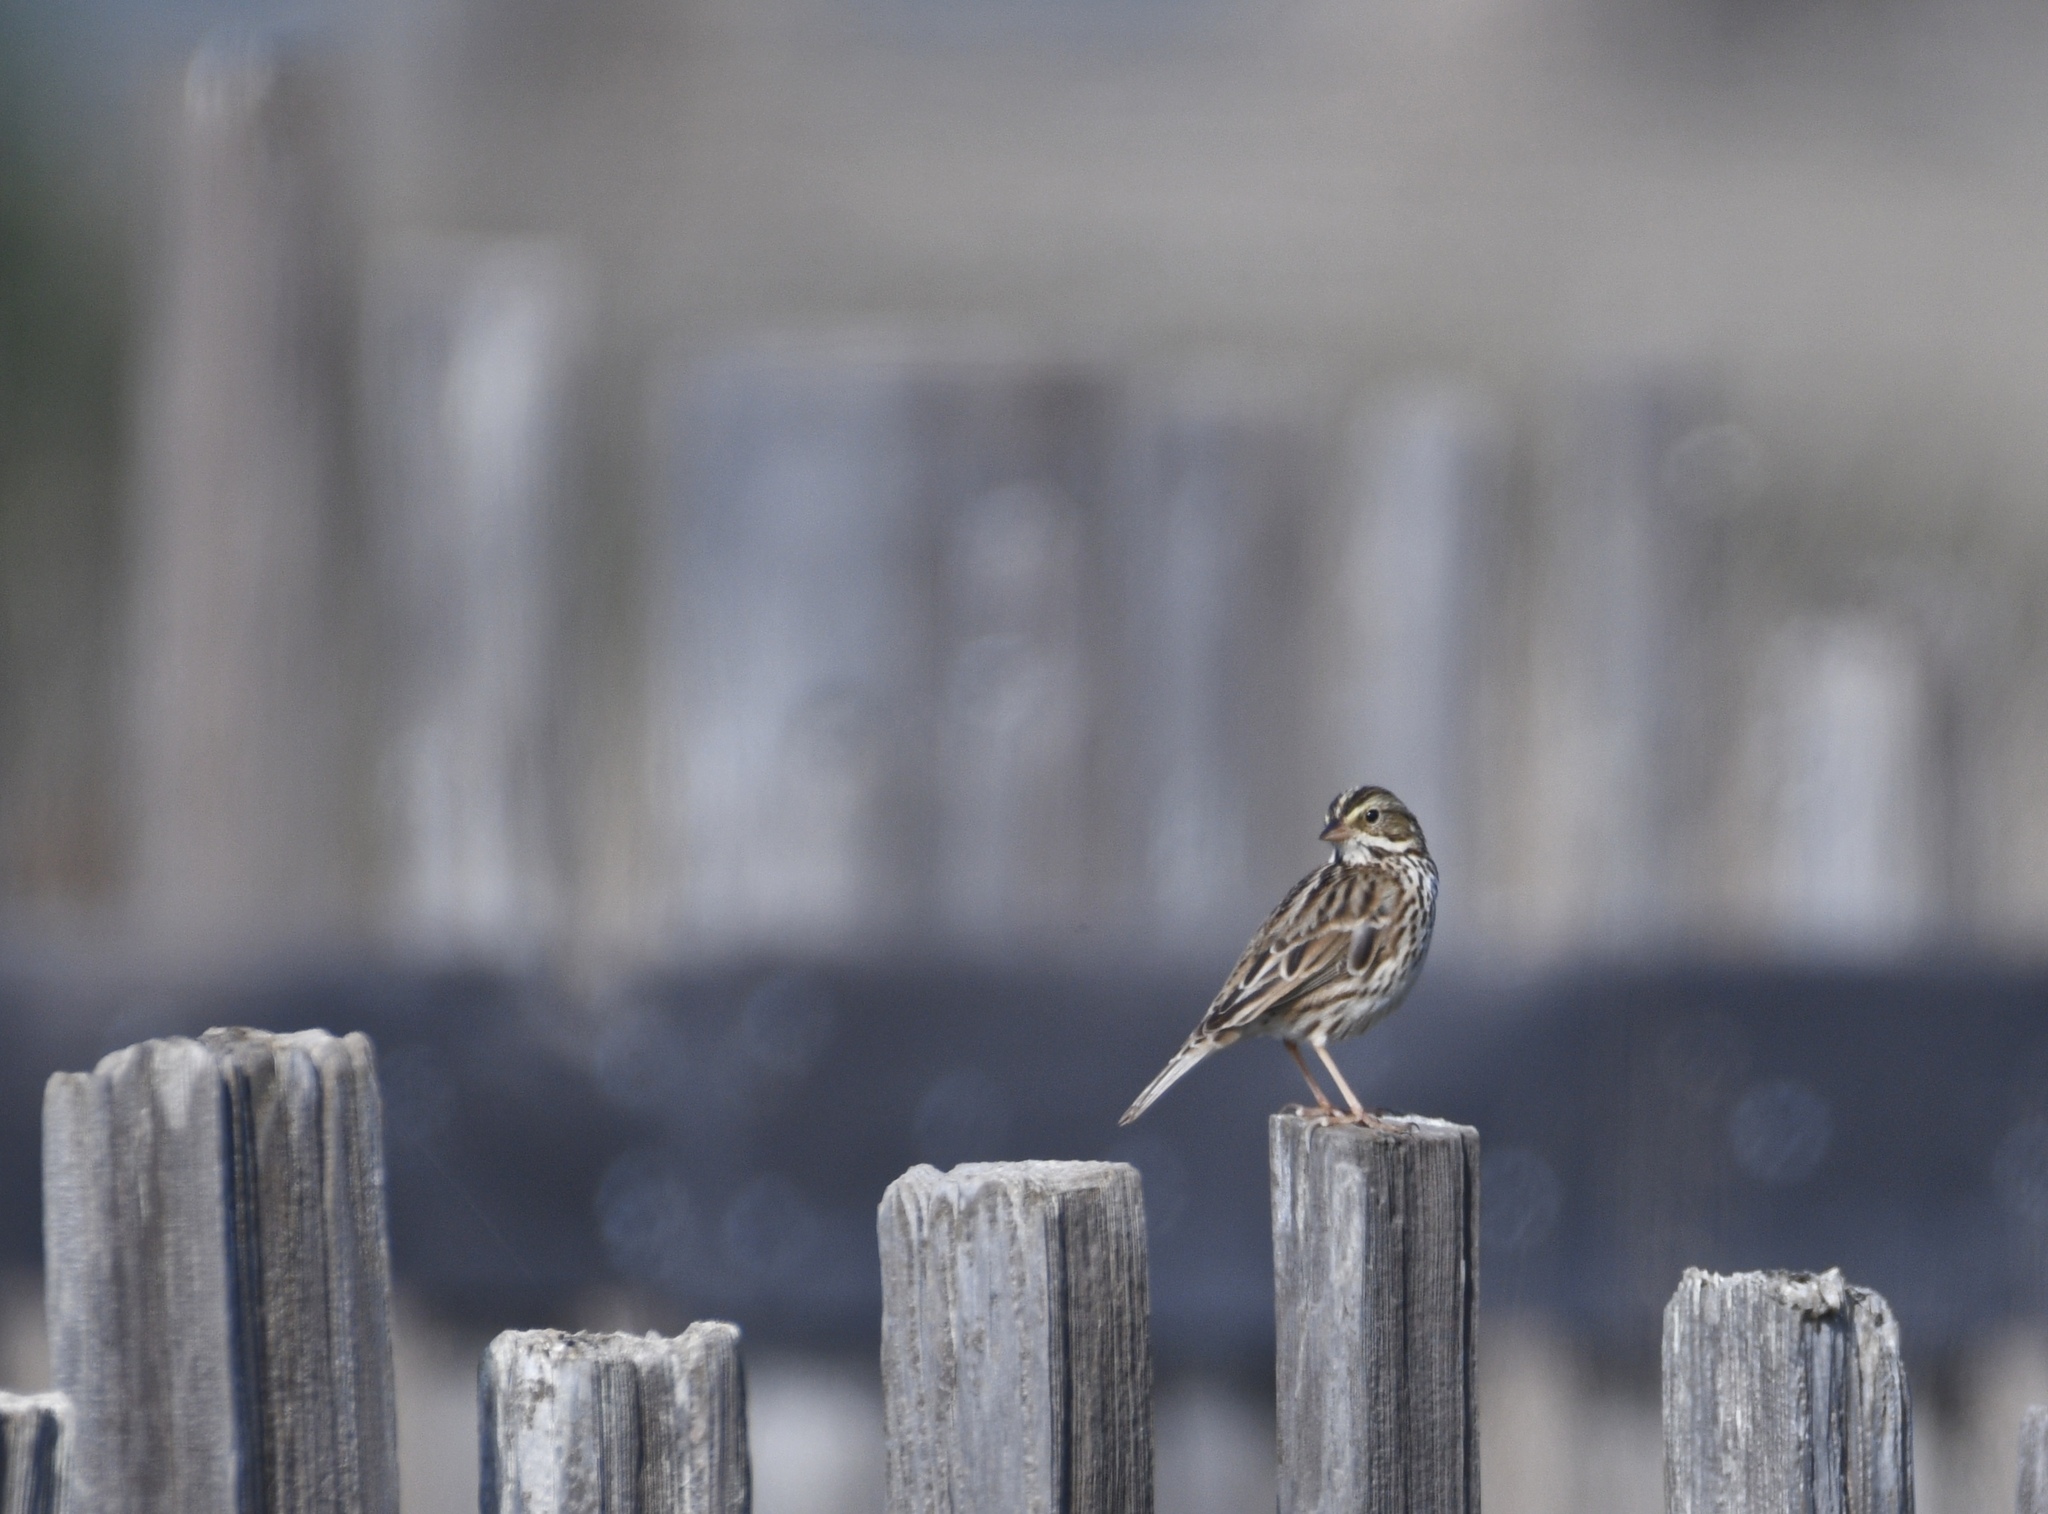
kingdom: Animalia
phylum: Chordata
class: Aves
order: Passeriformes
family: Passerellidae
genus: Passerculus
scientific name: Passerculus sandwichensis
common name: Savannah sparrow
